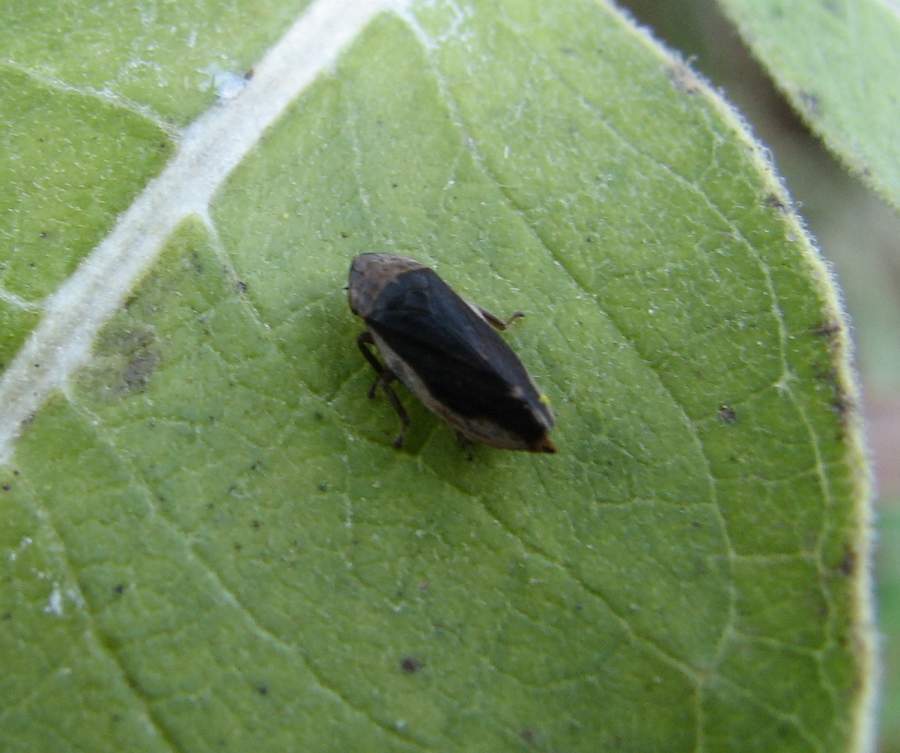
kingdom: Animalia
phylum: Arthropoda
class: Insecta
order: Hemiptera
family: Aphrophoridae
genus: Philaenus
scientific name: Philaenus spumarius
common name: Meadow spittlebug
